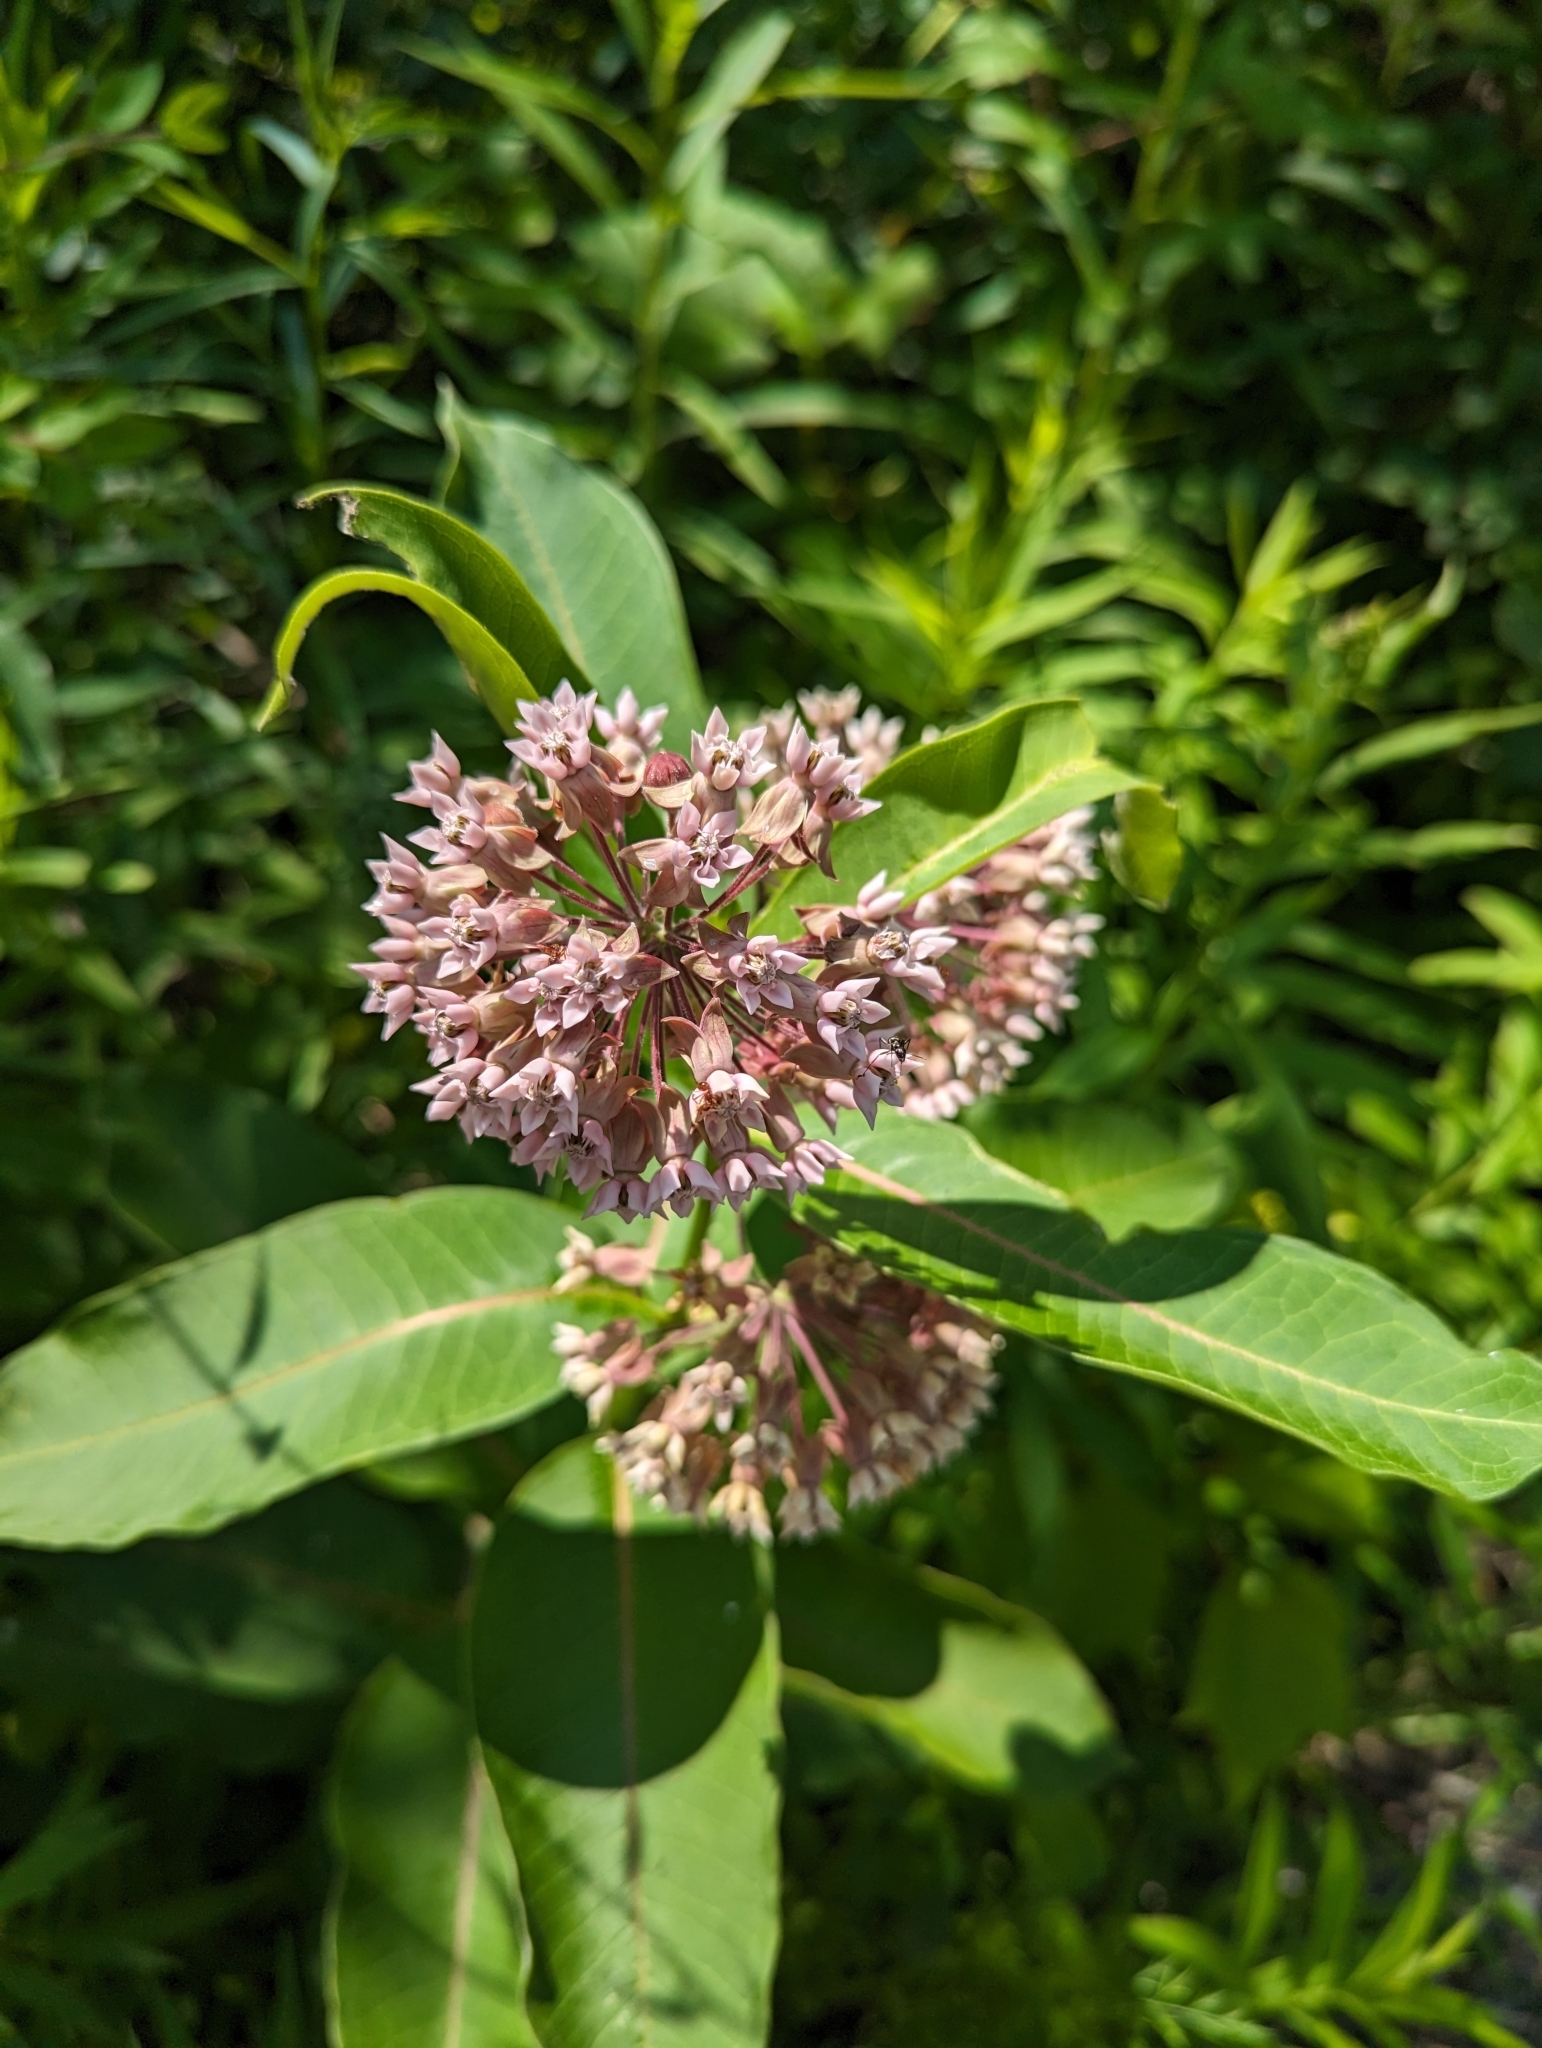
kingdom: Plantae
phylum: Tracheophyta
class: Magnoliopsida
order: Gentianales
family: Apocynaceae
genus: Asclepias
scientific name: Asclepias syriaca
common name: Common milkweed
